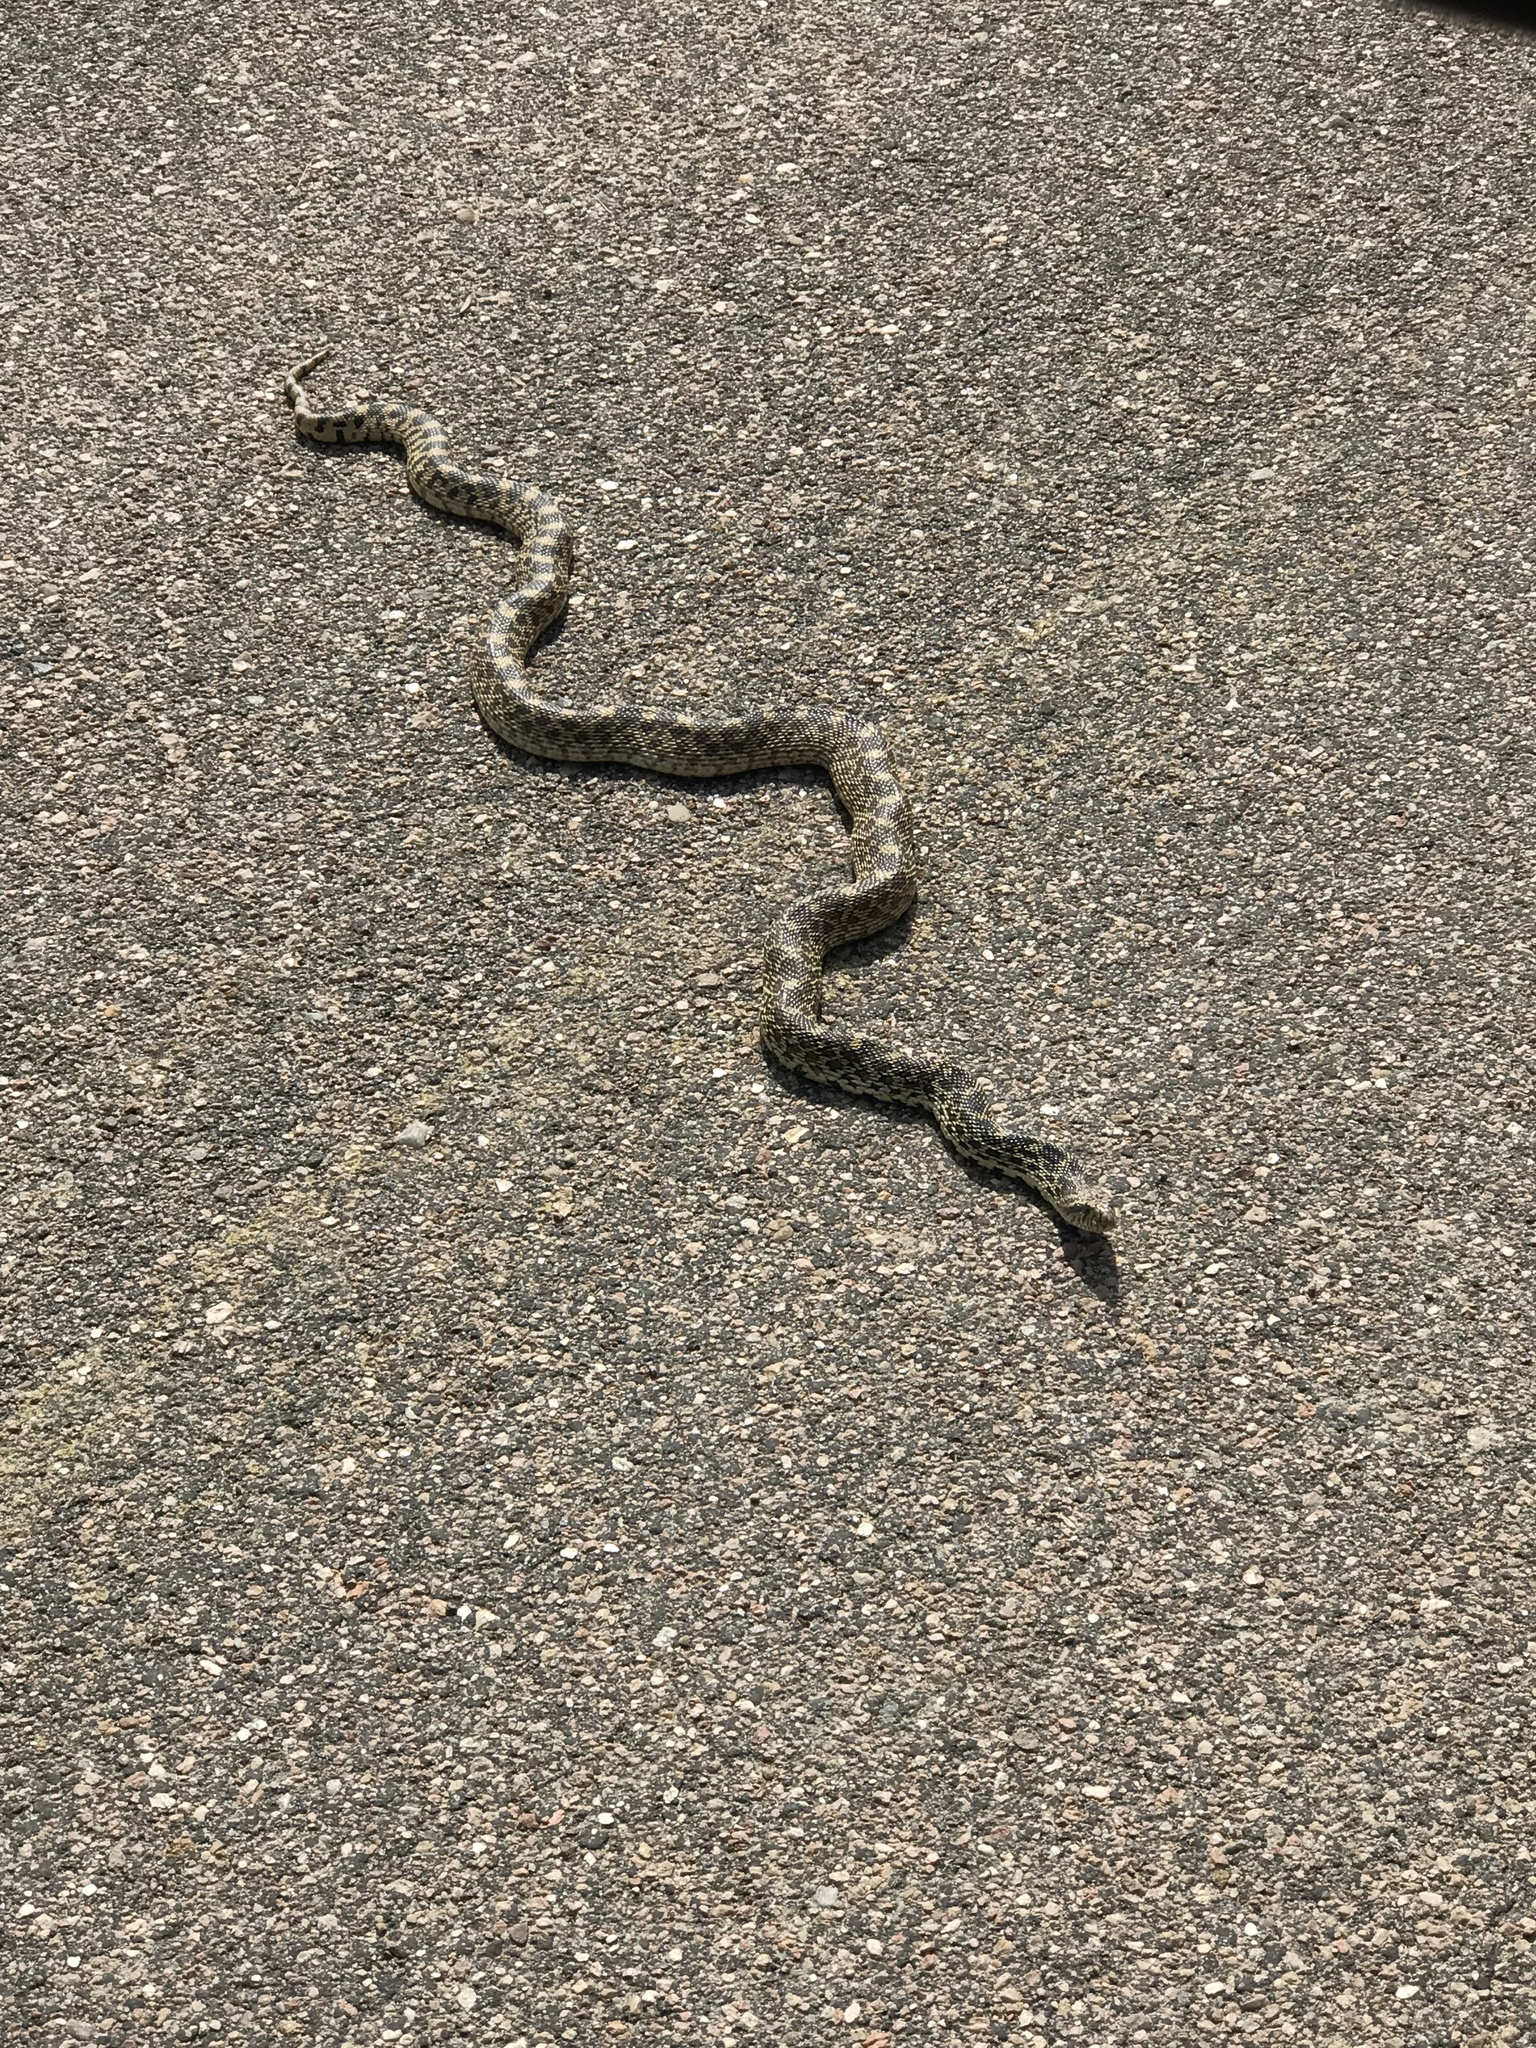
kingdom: Animalia
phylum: Chordata
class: Squamata
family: Colubridae
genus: Pituophis
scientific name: Pituophis catenifer
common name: Gopher snake
